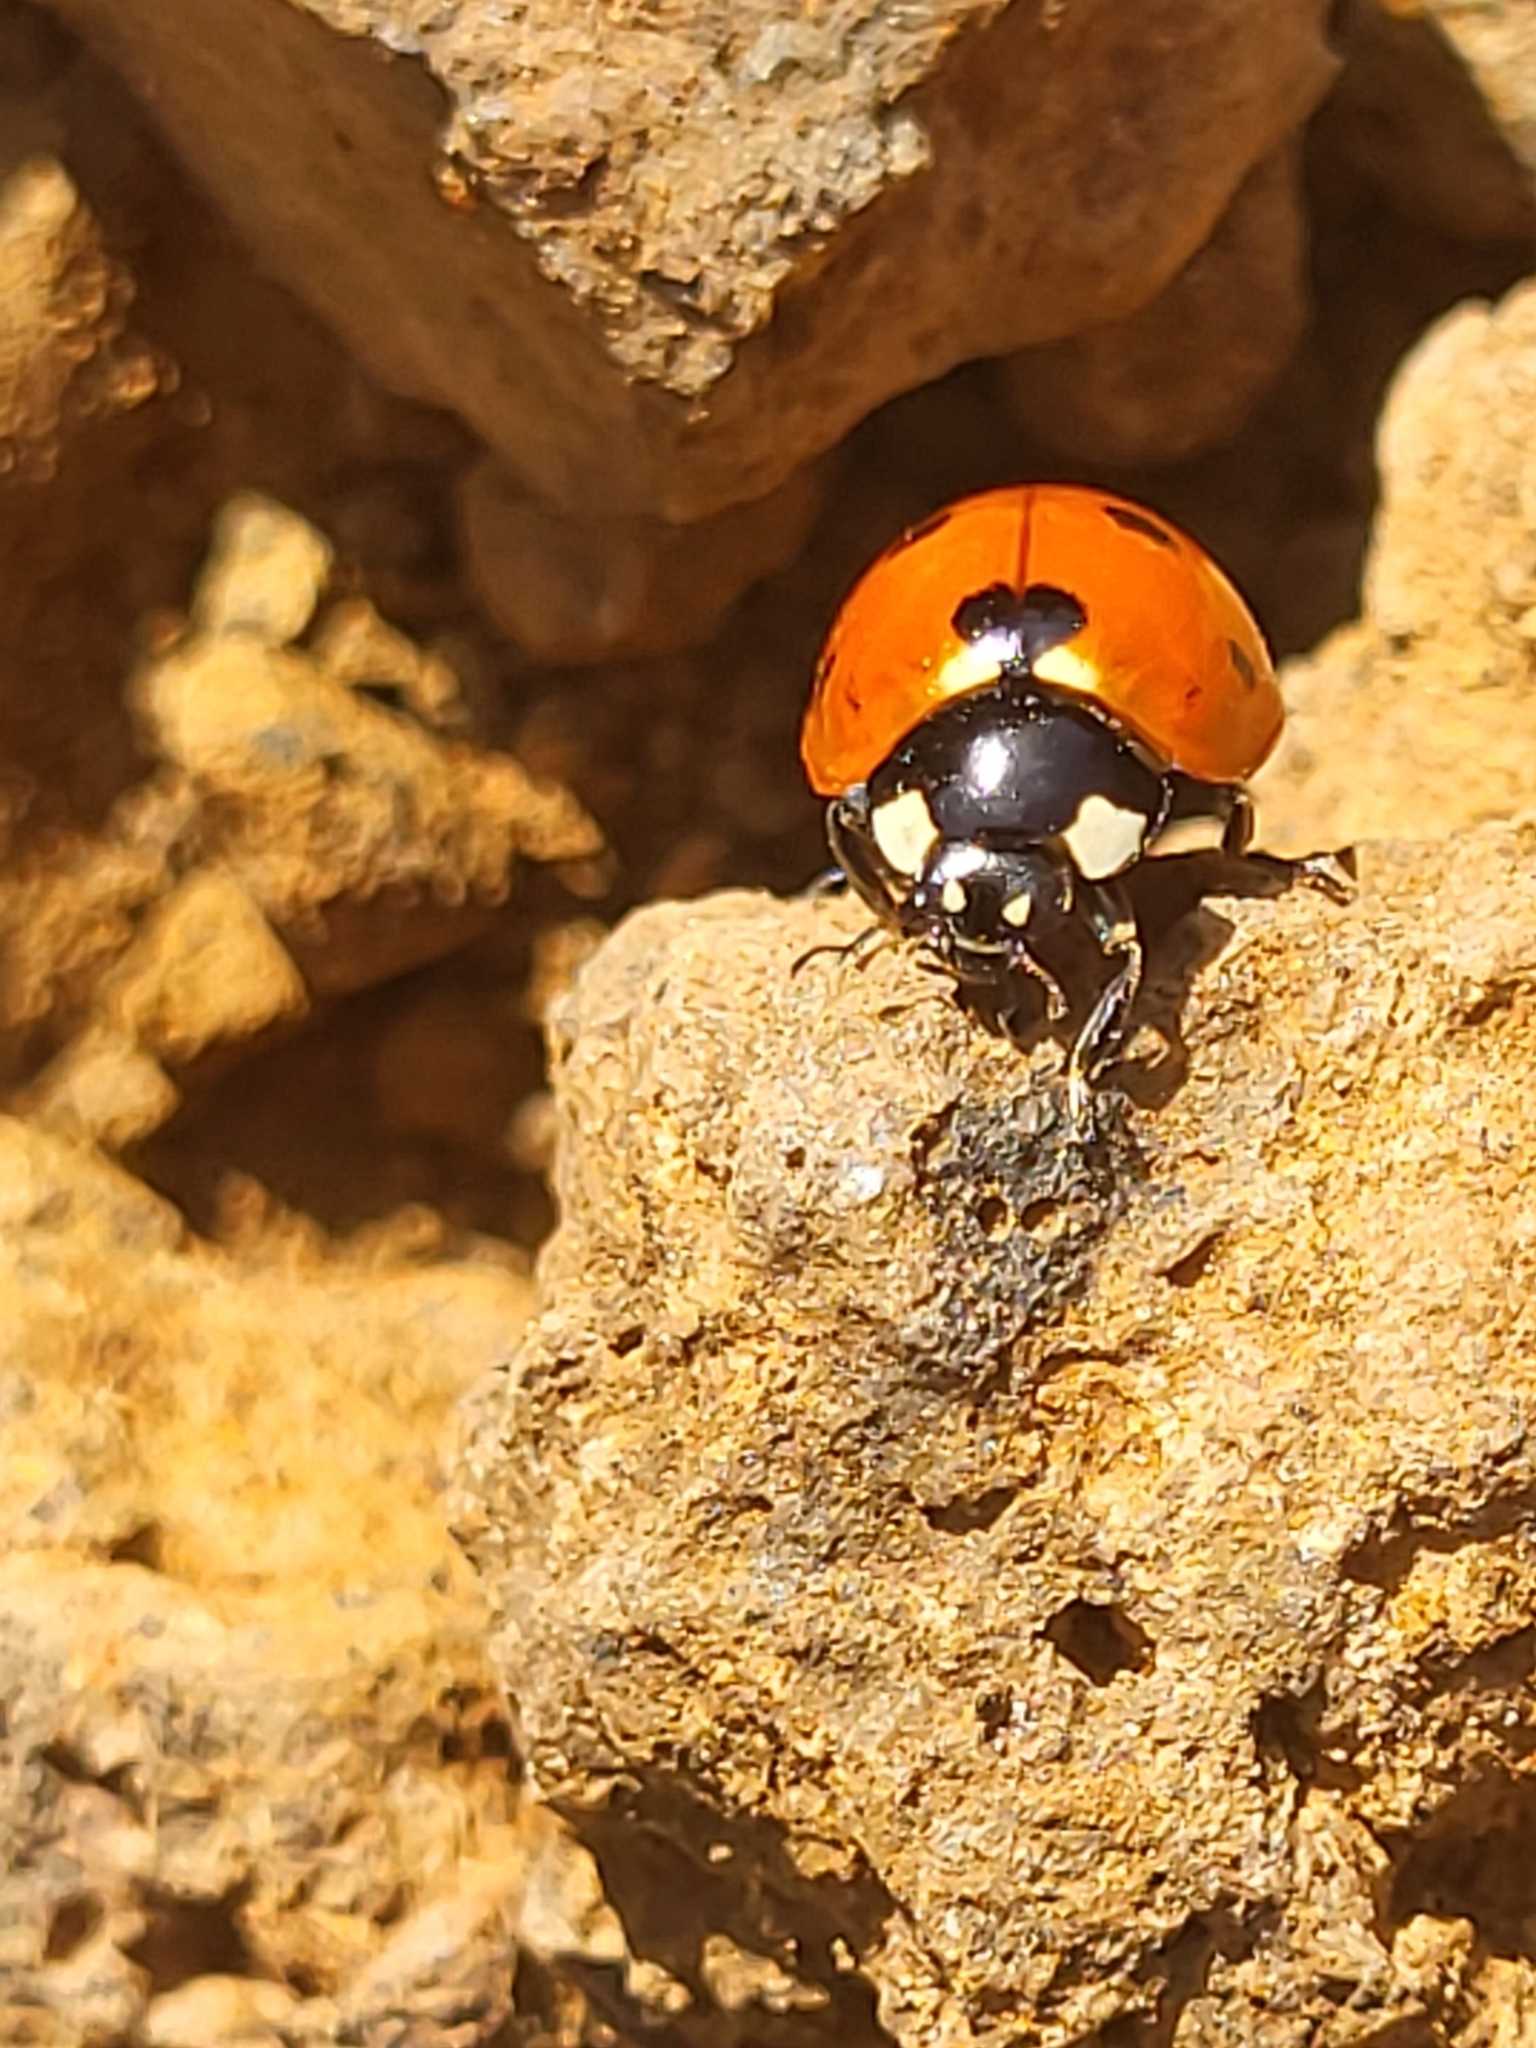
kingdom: Animalia
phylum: Arthropoda
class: Insecta
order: Coleoptera
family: Coccinellidae
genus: Coccinella
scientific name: Coccinella algerica
